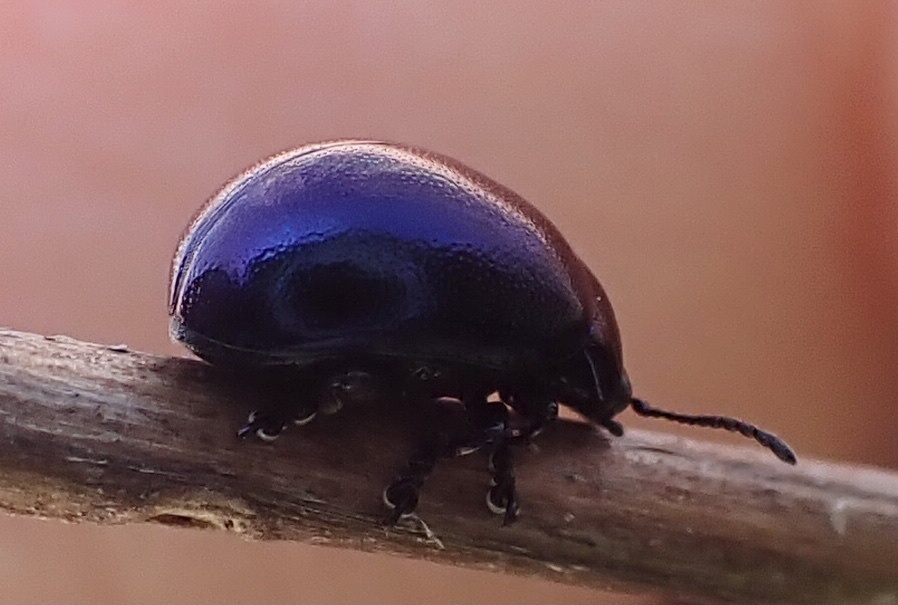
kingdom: Animalia
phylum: Arthropoda
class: Insecta
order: Coleoptera
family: Chrysomelidae
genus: Chrysolina
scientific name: Chrysolina varians
